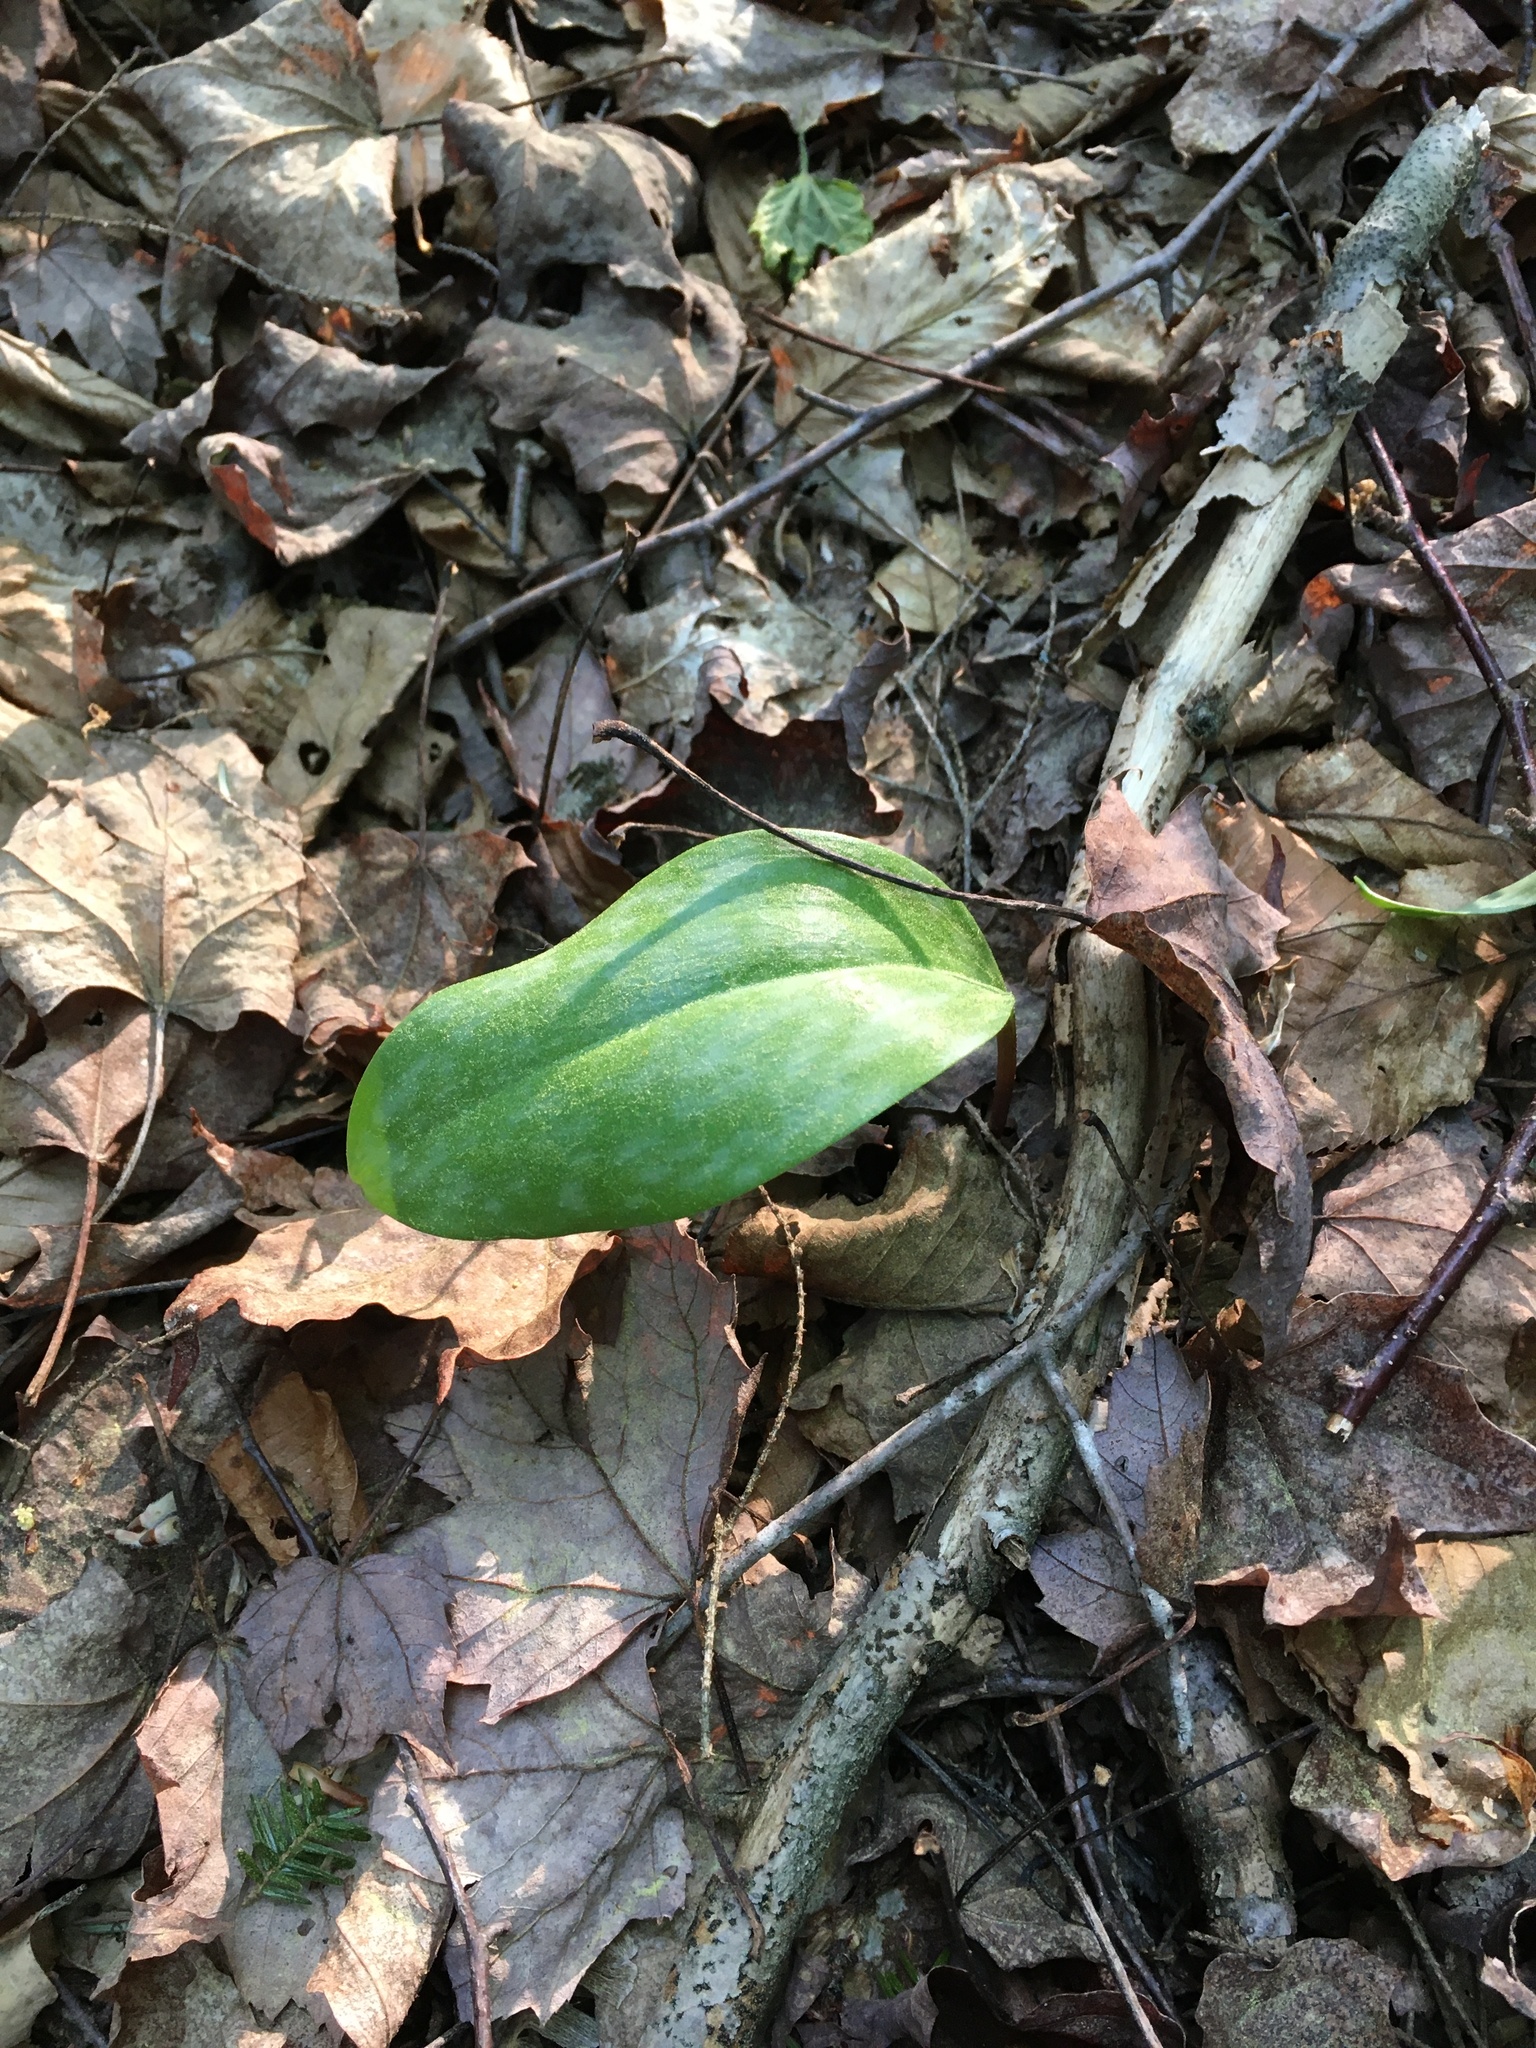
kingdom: Plantae
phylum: Tracheophyta
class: Liliopsida
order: Liliales
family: Liliaceae
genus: Erythronium
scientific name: Erythronium americanum
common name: Yellow adder's-tongue
